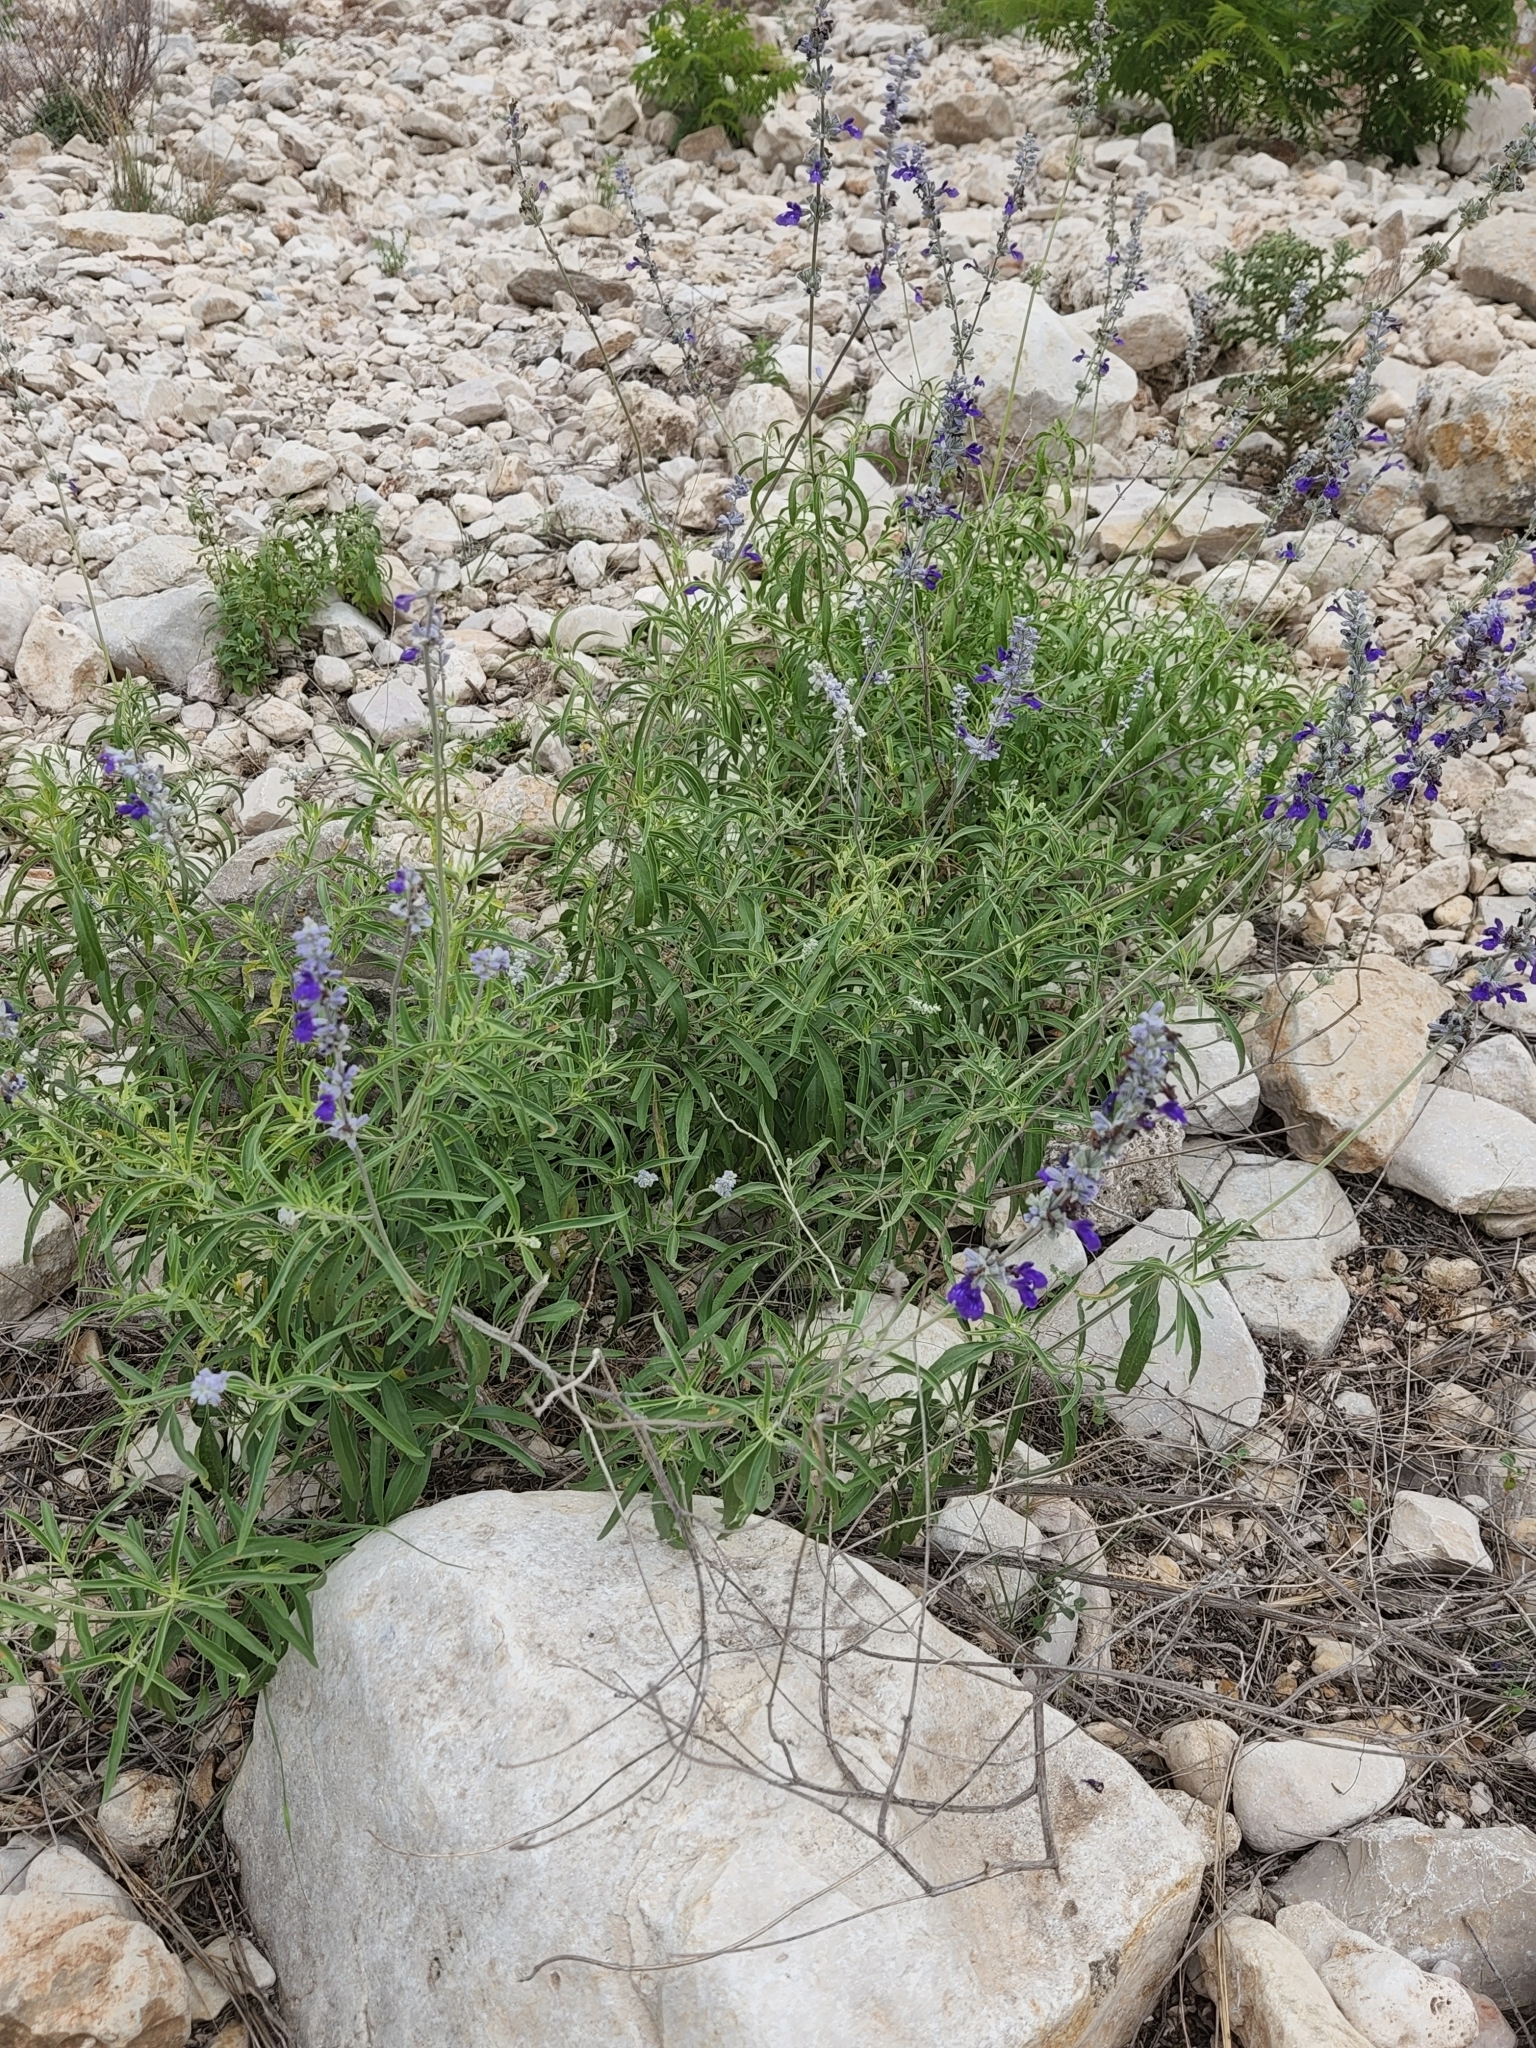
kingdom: Plantae
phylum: Tracheophyta
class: Magnoliopsida
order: Lamiales
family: Lamiaceae
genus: Salvia
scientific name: Salvia farinacea
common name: Mealy sage
